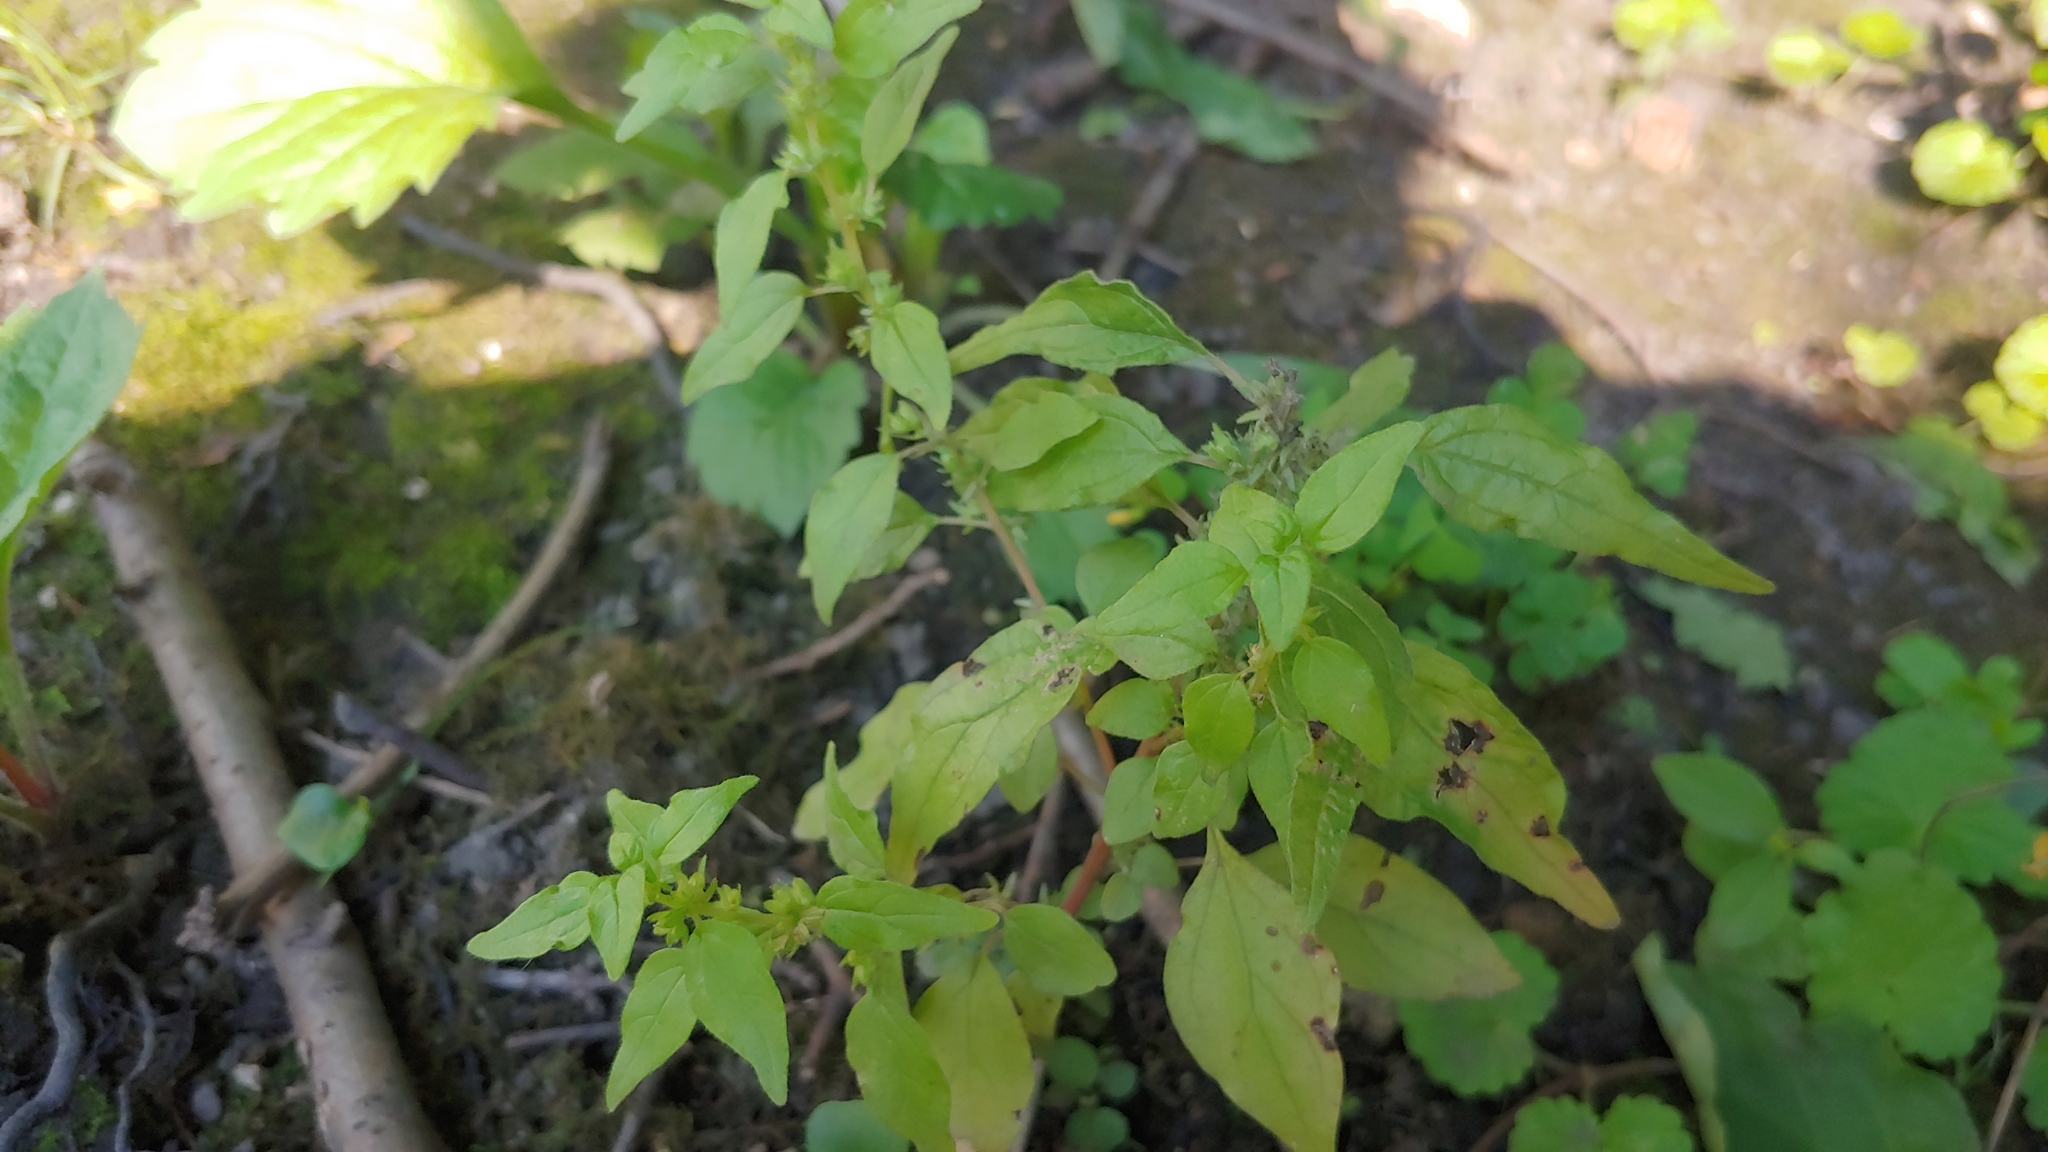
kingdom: Plantae
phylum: Tracheophyta
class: Magnoliopsida
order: Rosales
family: Urticaceae
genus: Parietaria
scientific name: Parietaria pensylvanica
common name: Pennsylvania pellitory
